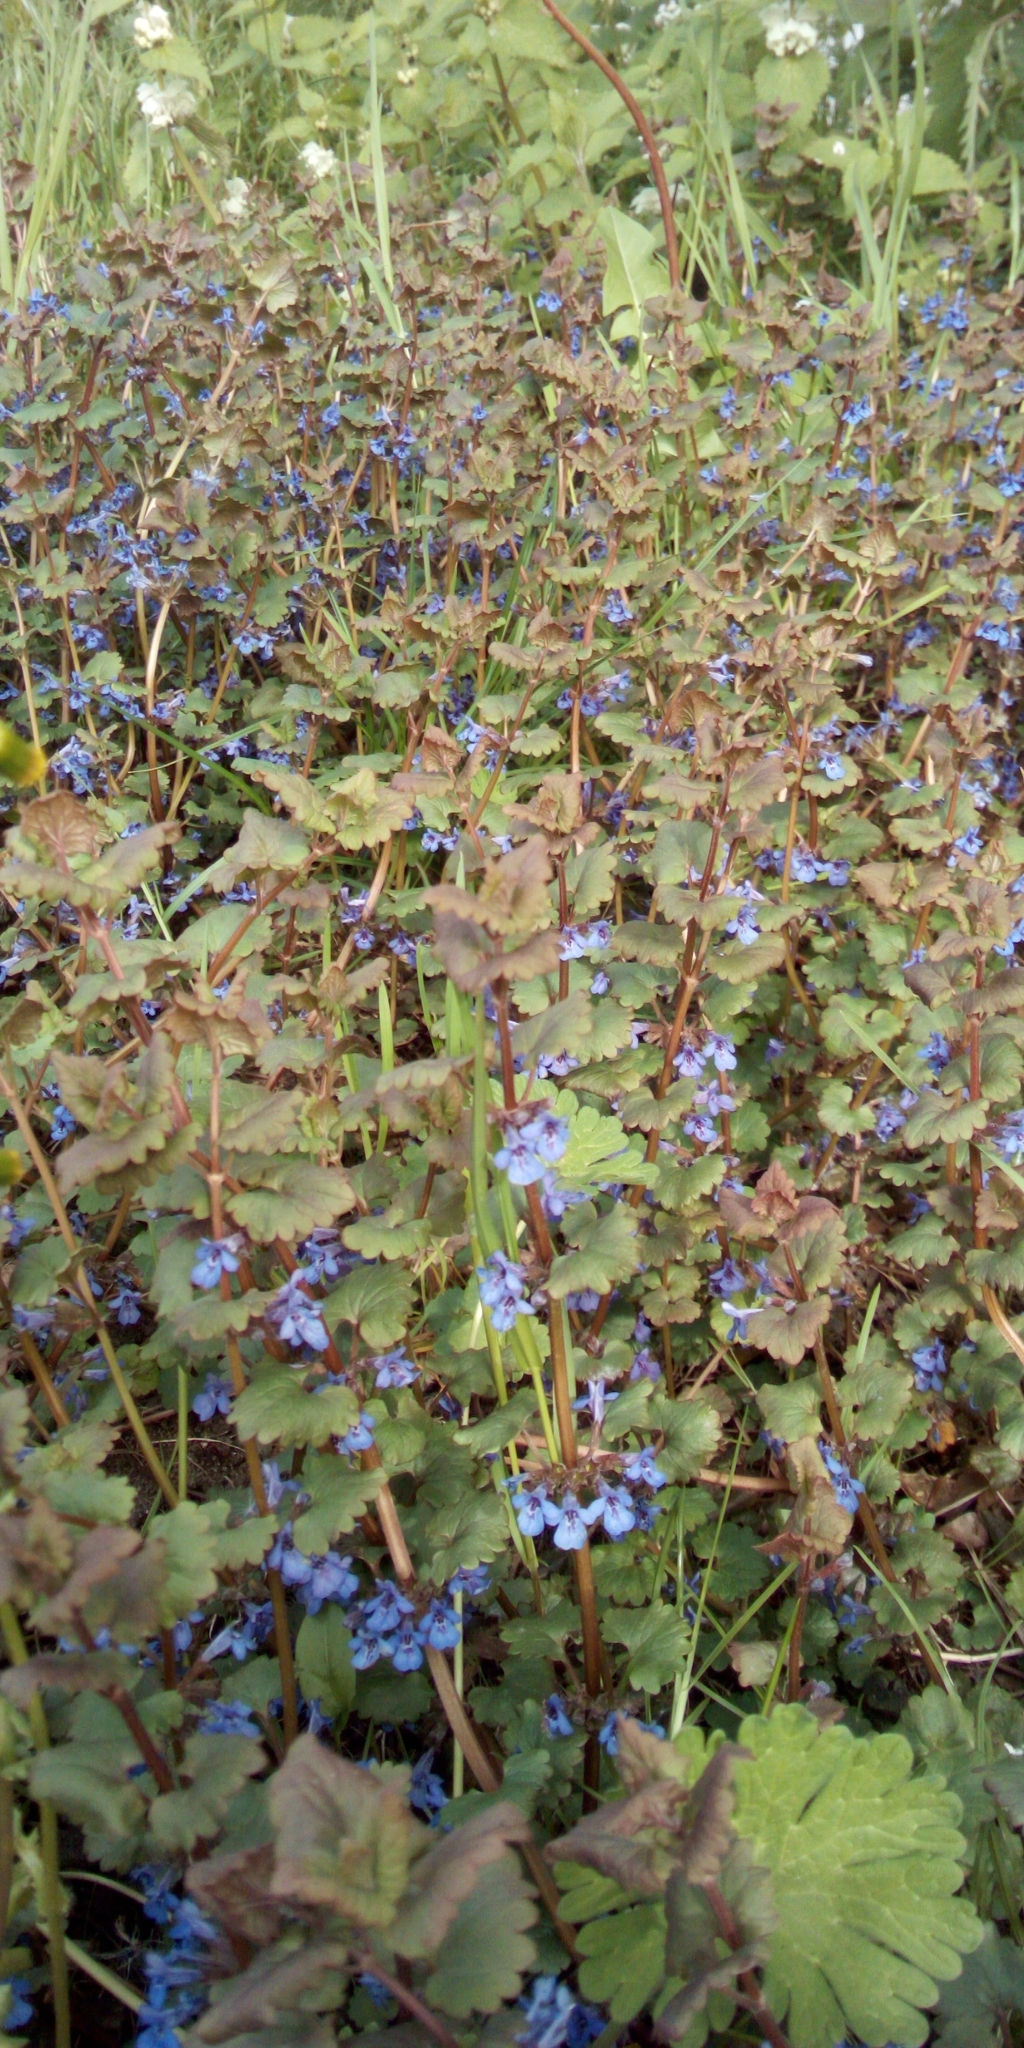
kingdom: Plantae
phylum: Tracheophyta
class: Magnoliopsida
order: Lamiales
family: Lamiaceae
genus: Glechoma
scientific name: Glechoma hederacea
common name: Ground ivy
